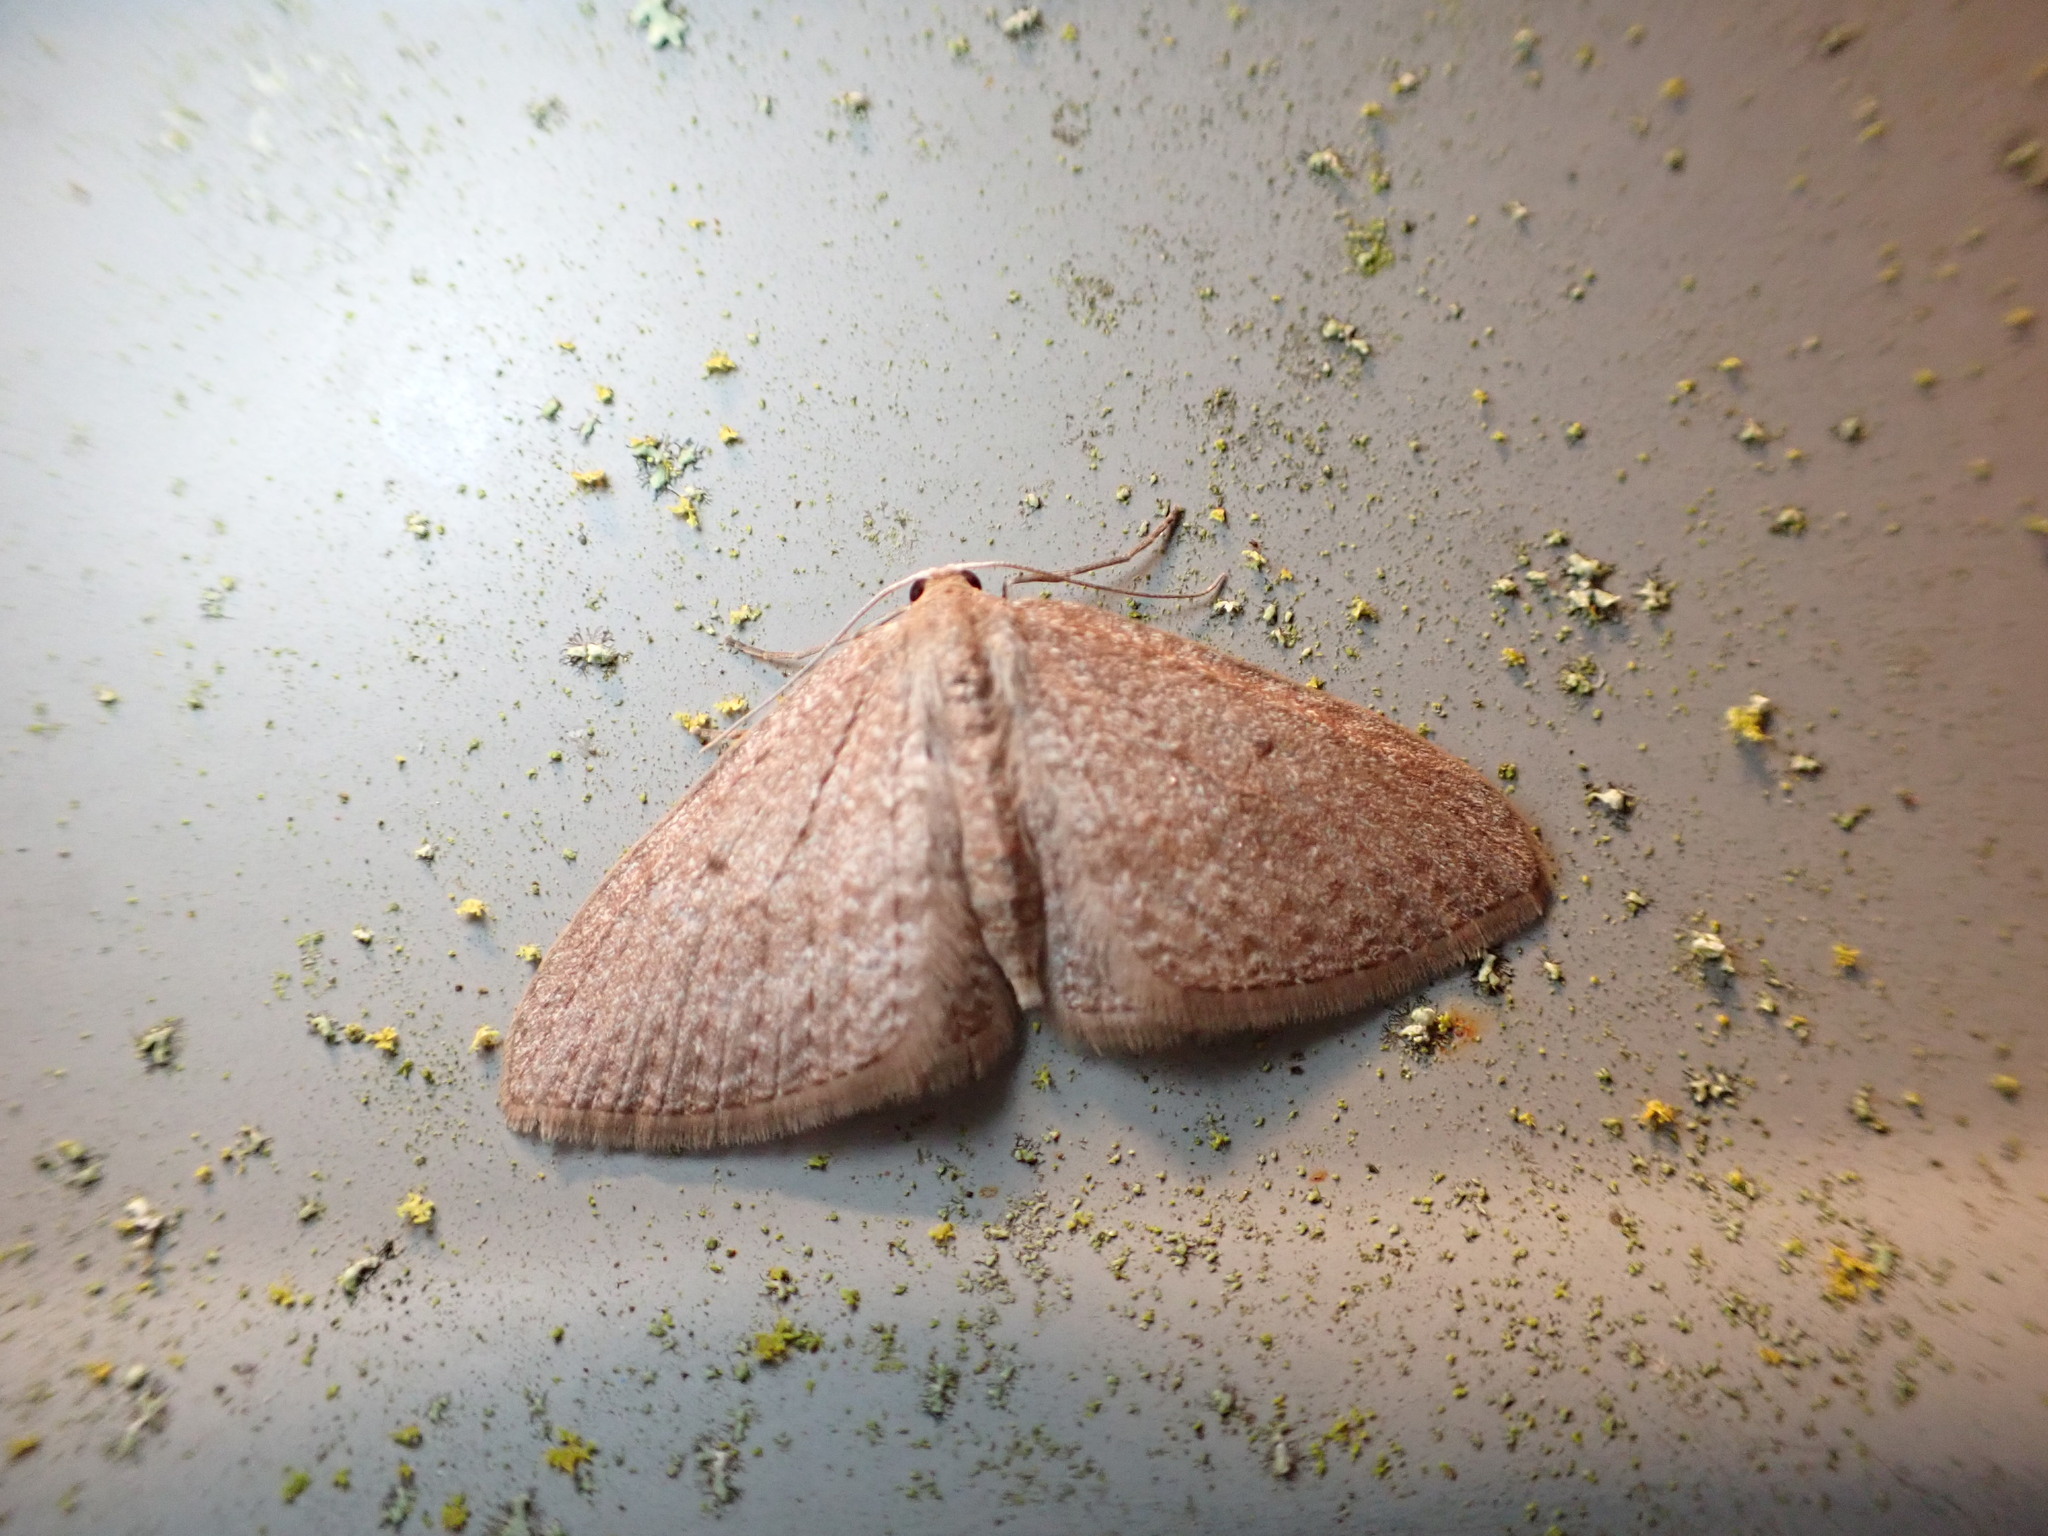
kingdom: Animalia
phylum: Arthropoda
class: Insecta
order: Lepidoptera
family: Geometridae
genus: Poecilasthena
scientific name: Poecilasthena schistaria
